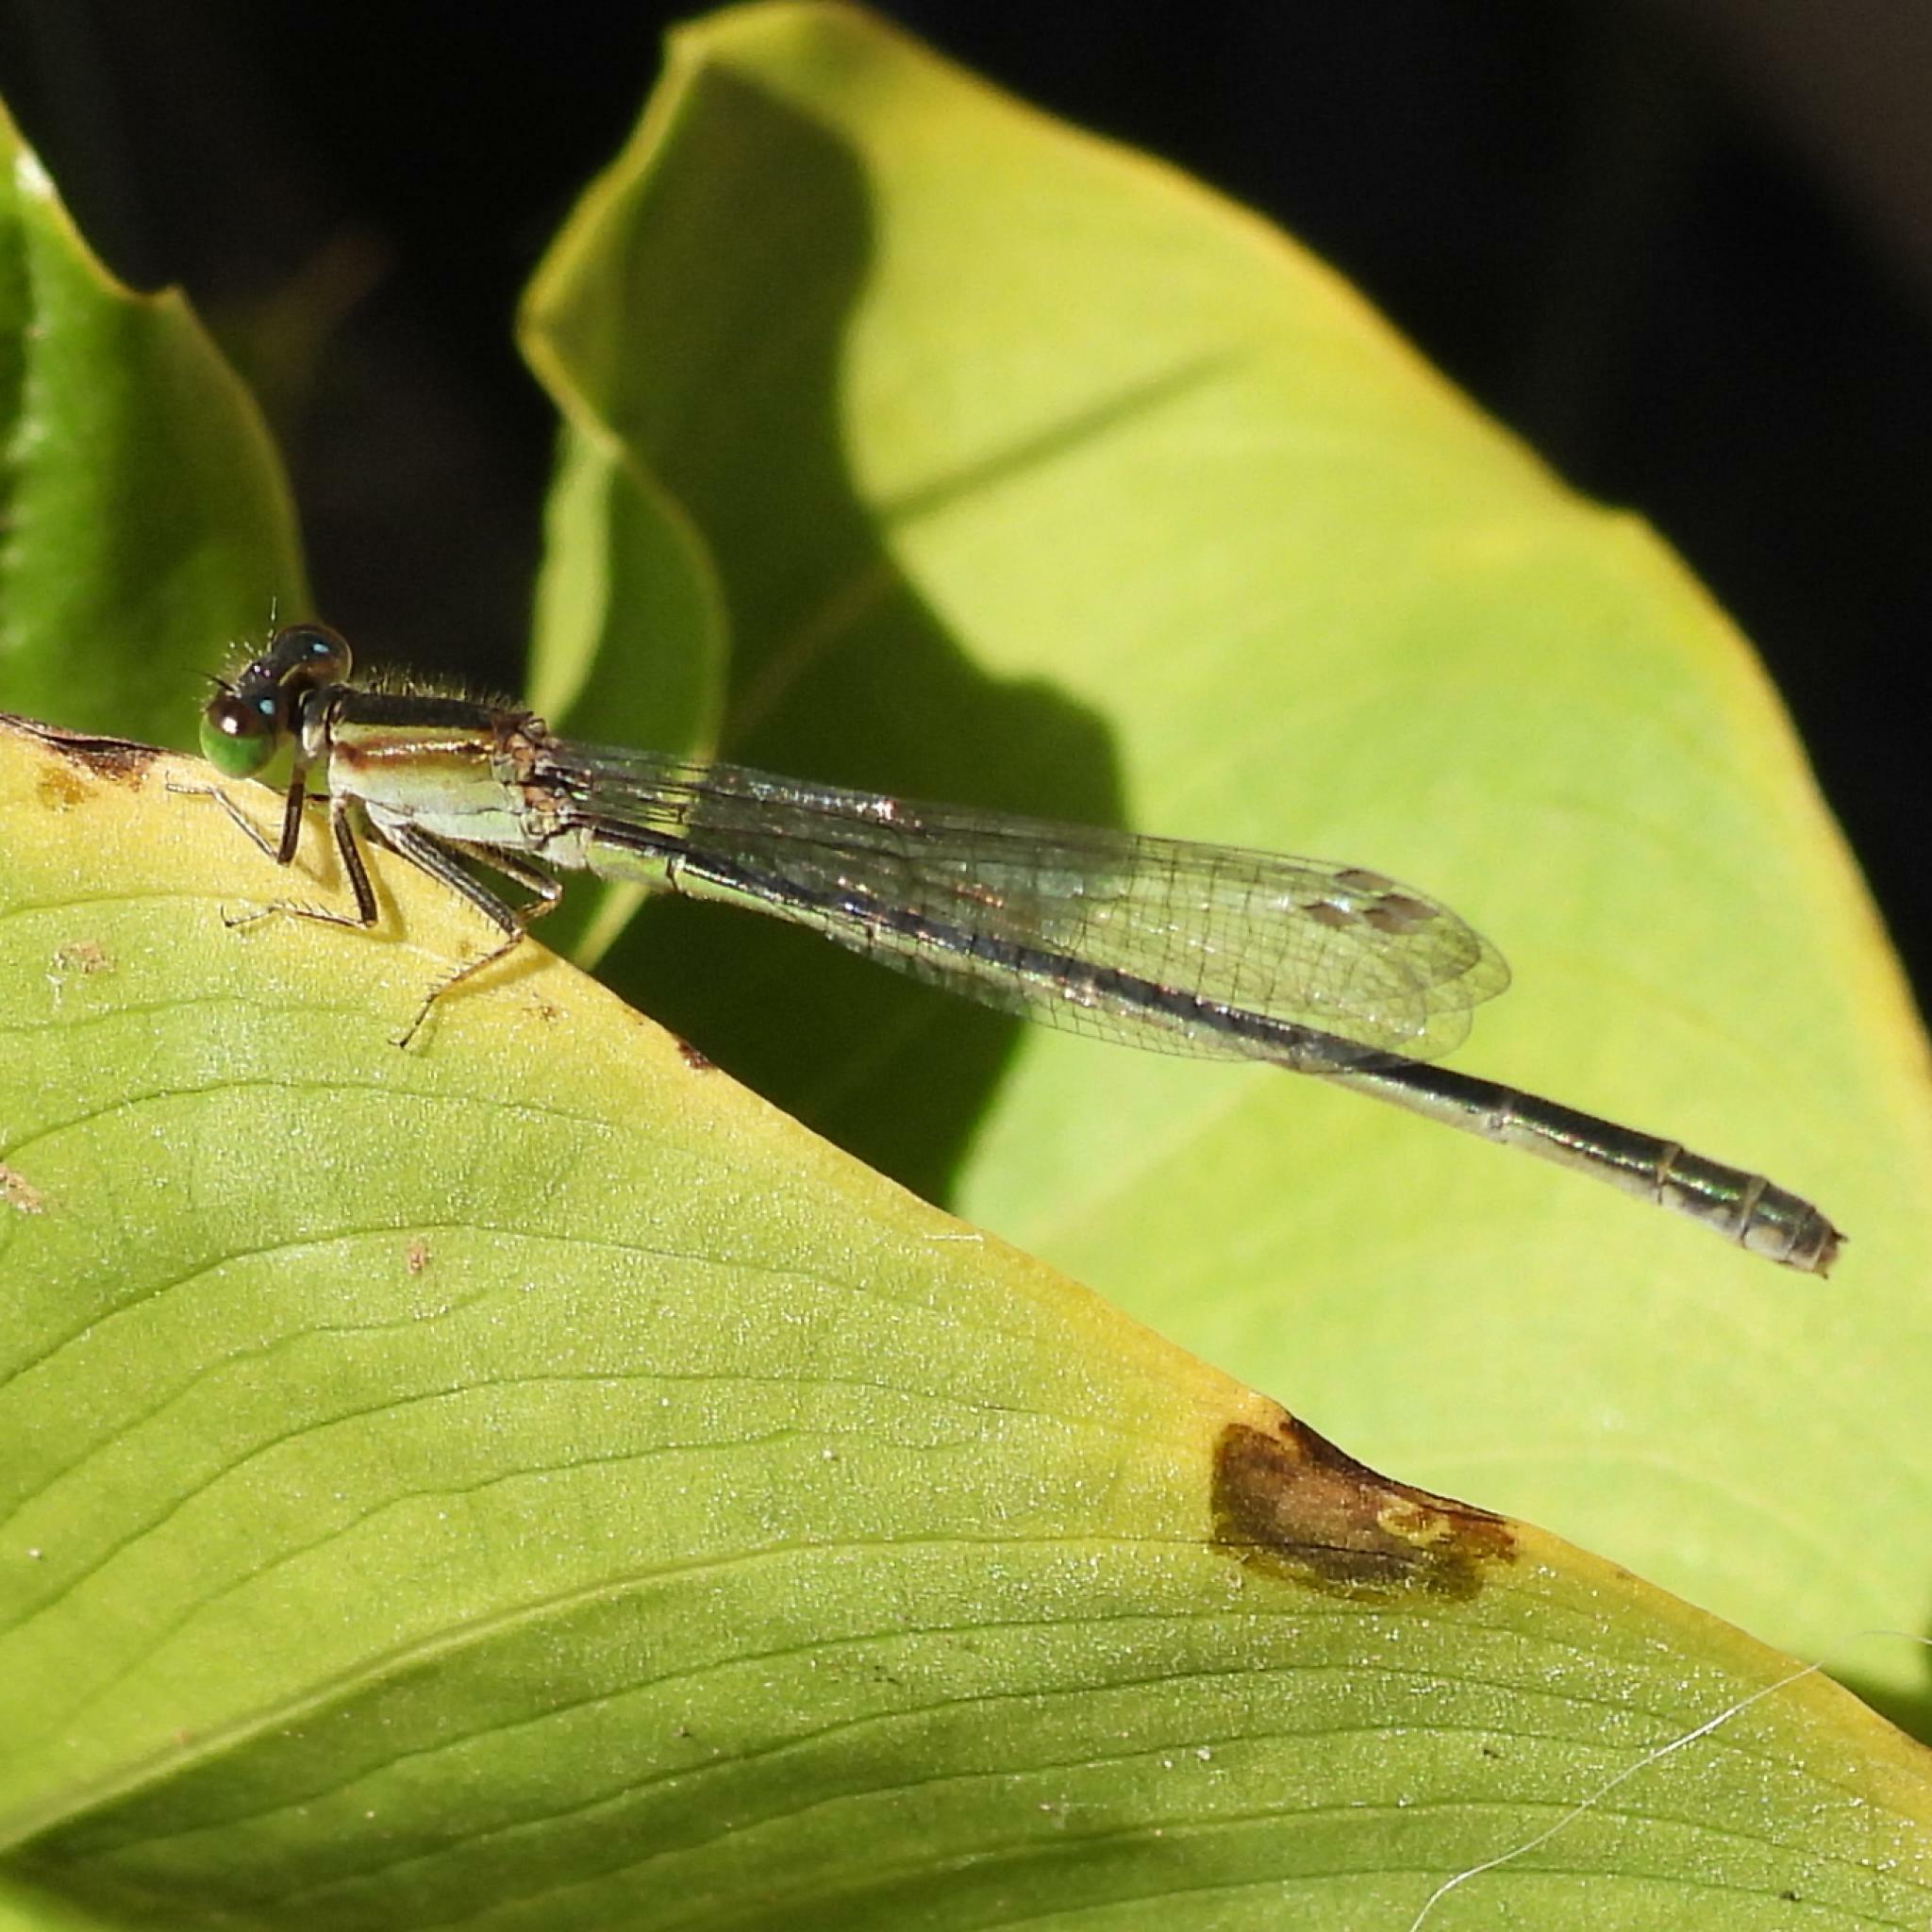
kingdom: Animalia
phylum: Arthropoda
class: Insecta
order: Odonata
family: Coenagrionidae
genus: Ischnura
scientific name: Ischnura senegalensis
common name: Tropical bluetail
